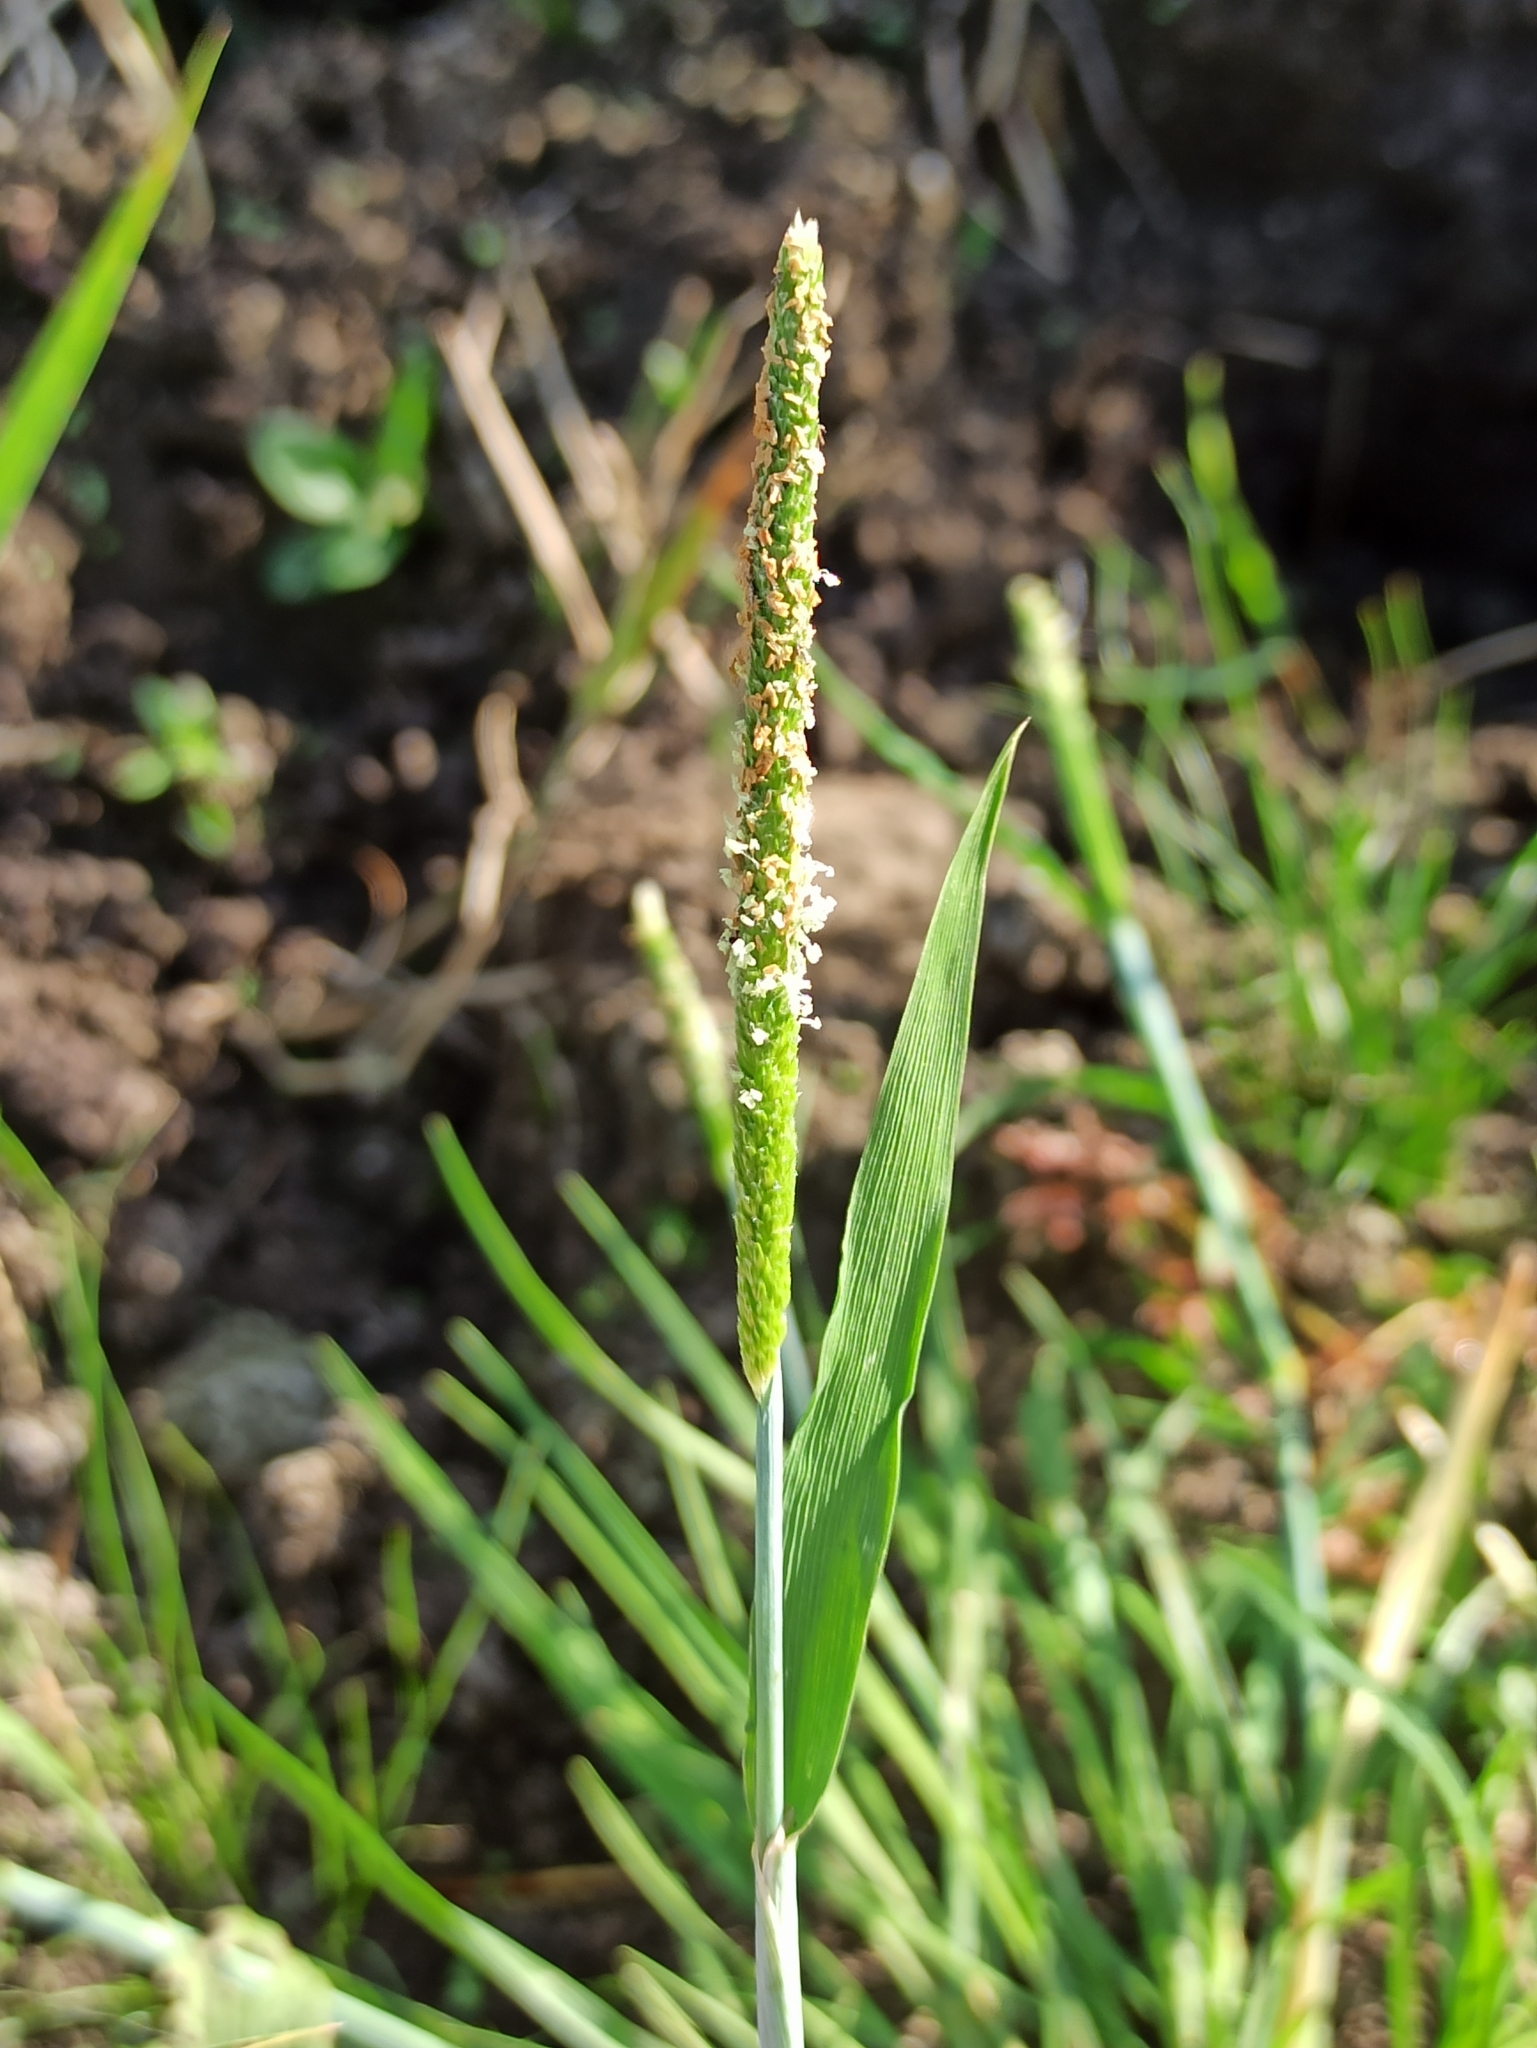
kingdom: Plantae
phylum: Tracheophyta
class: Liliopsida
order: Poales
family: Poaceae
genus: Alopecurus
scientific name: Alopecurus aequalis
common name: Orange foxtail
